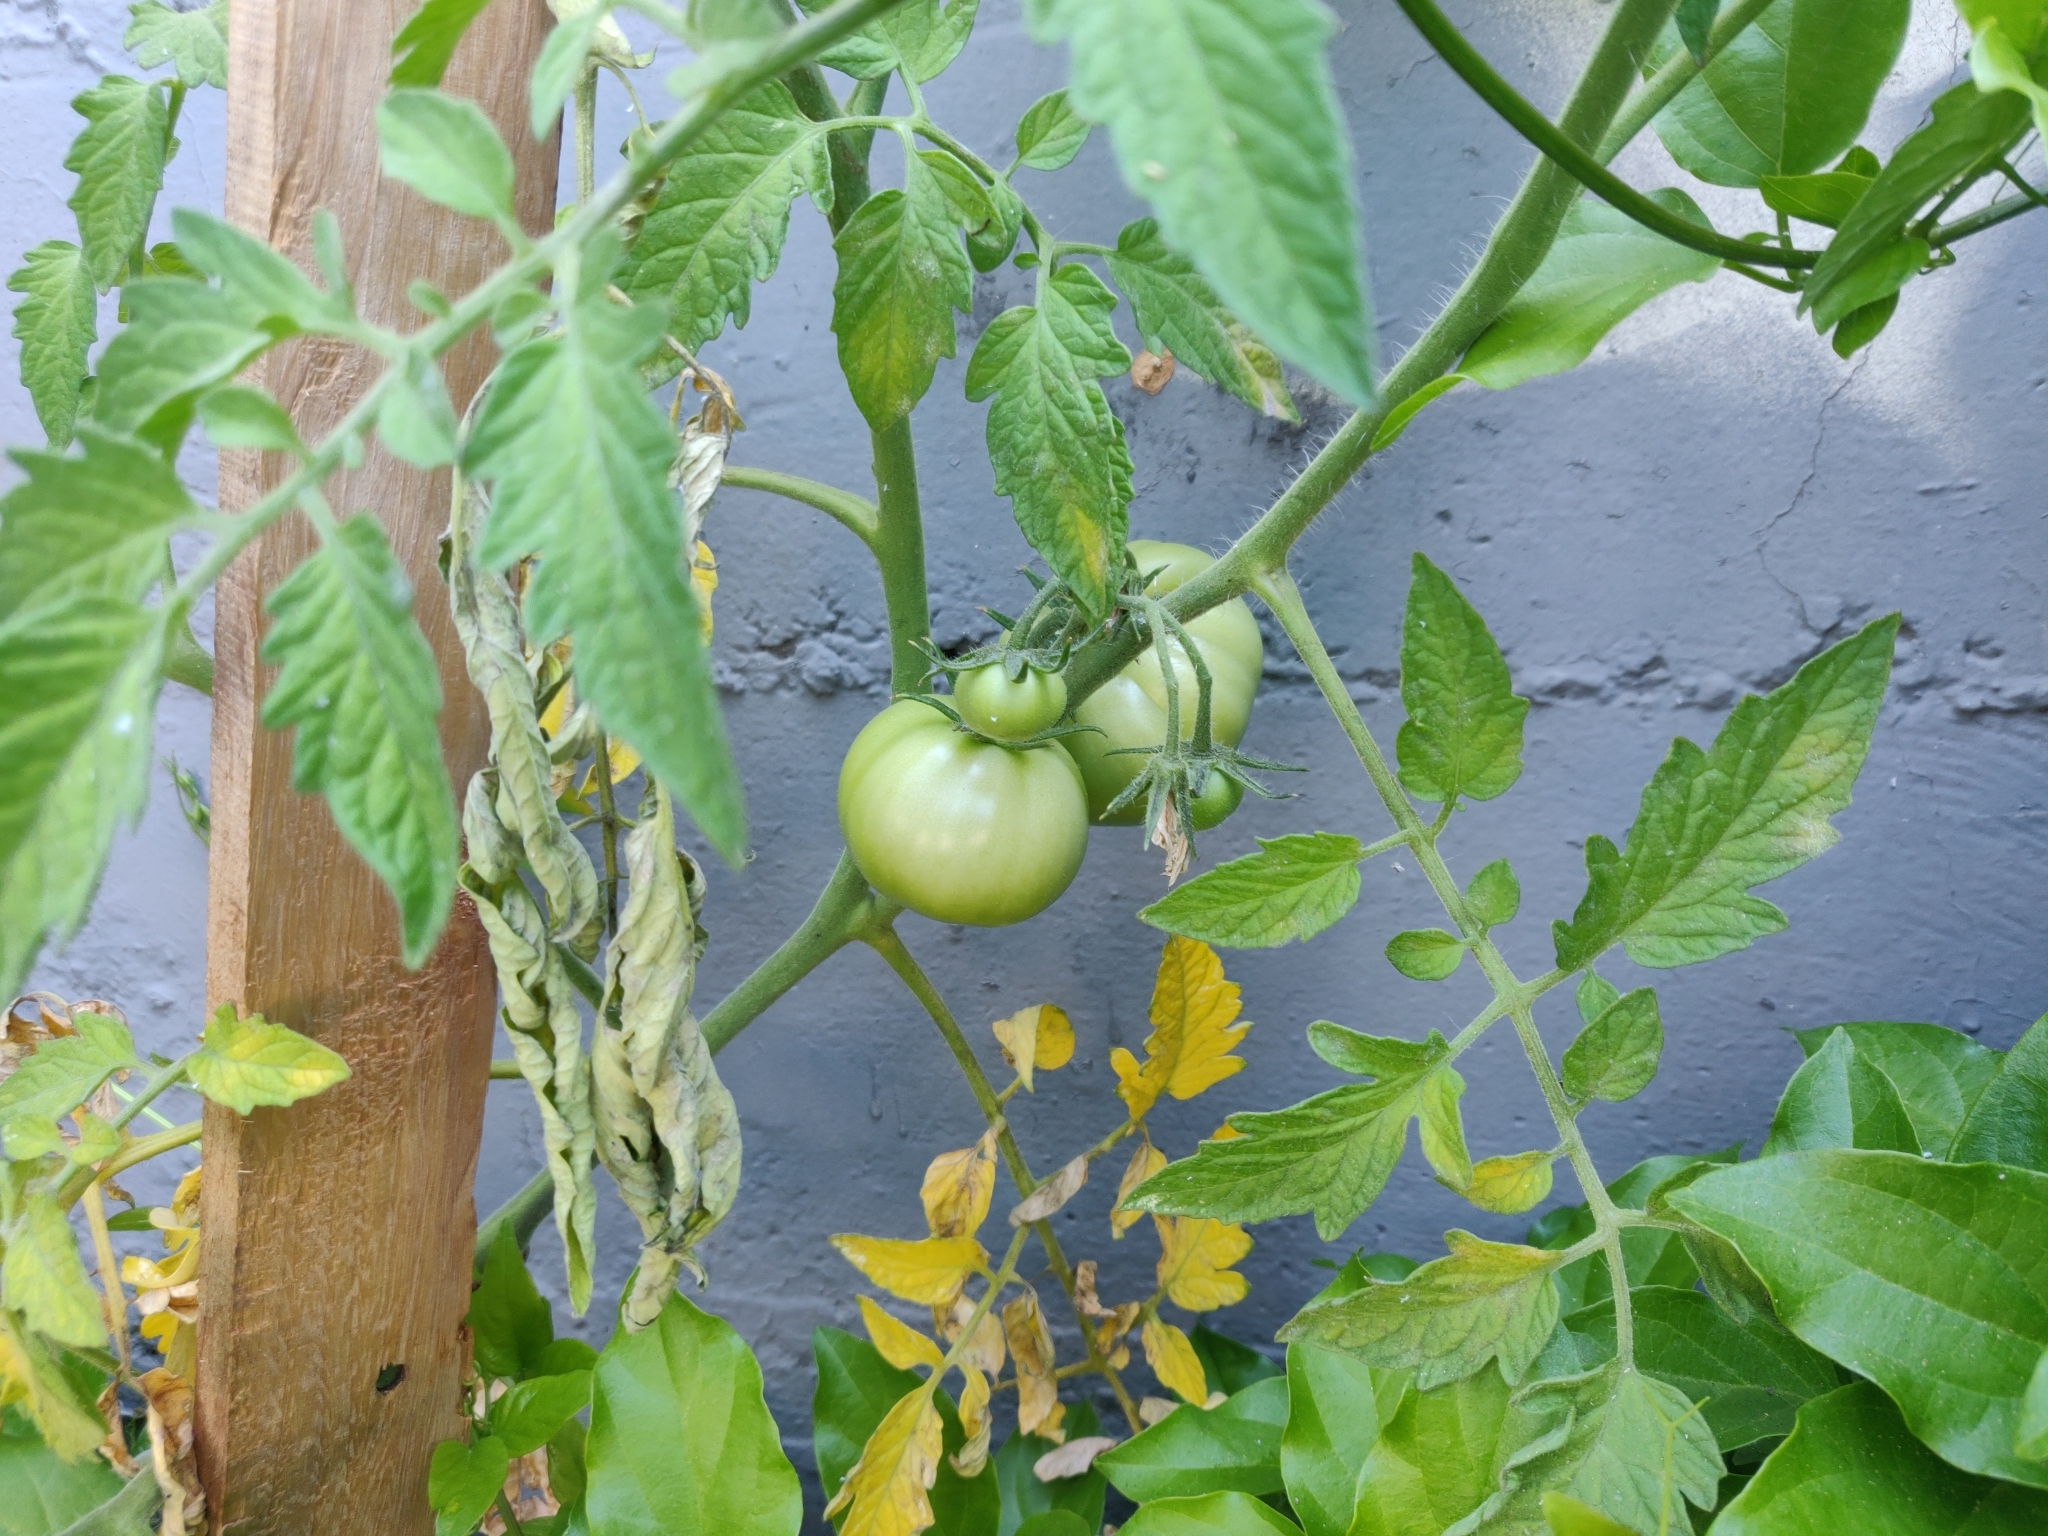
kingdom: Plantae
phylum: Tracheophyta
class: Magnoliopsida
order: Solanales
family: Solanaceae
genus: Solanum
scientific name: Solanum lycopersicum
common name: Garden tomato
